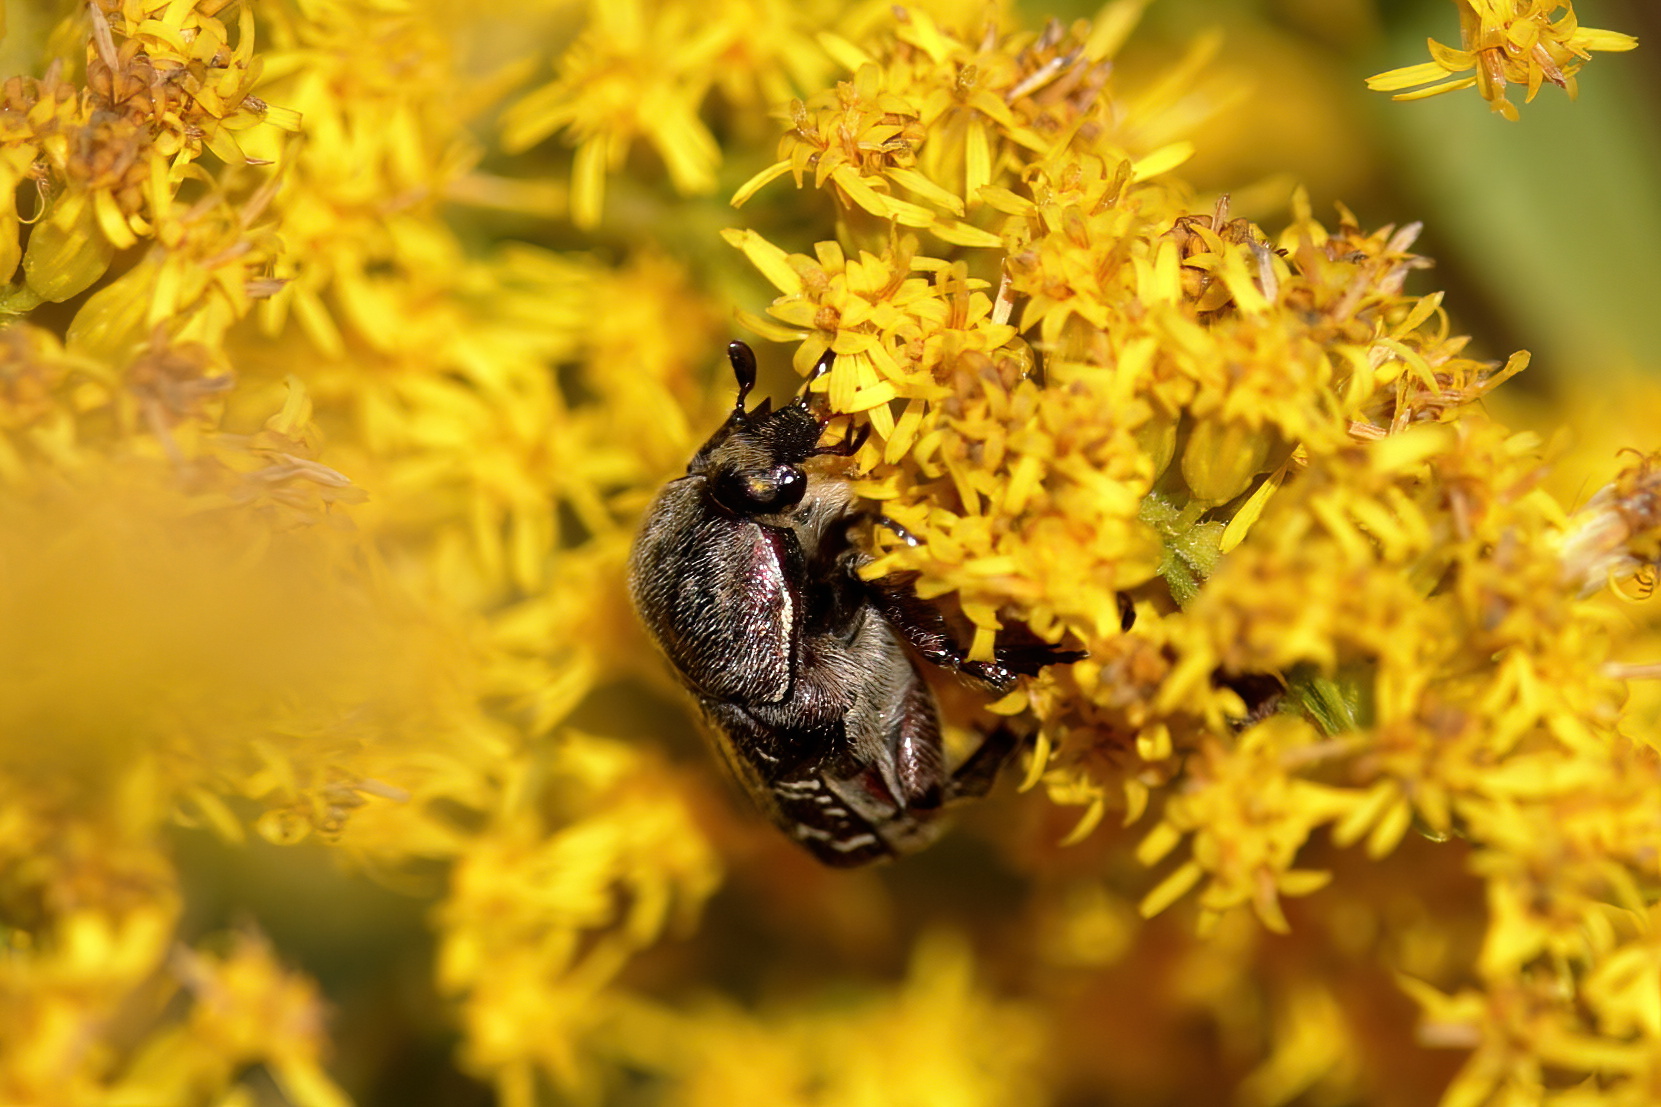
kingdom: Animalia
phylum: Arthropoda
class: Insecta
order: Coleoptera
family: Scarabaeidae
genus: Euphoria
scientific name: Euphoria sepulcralis
